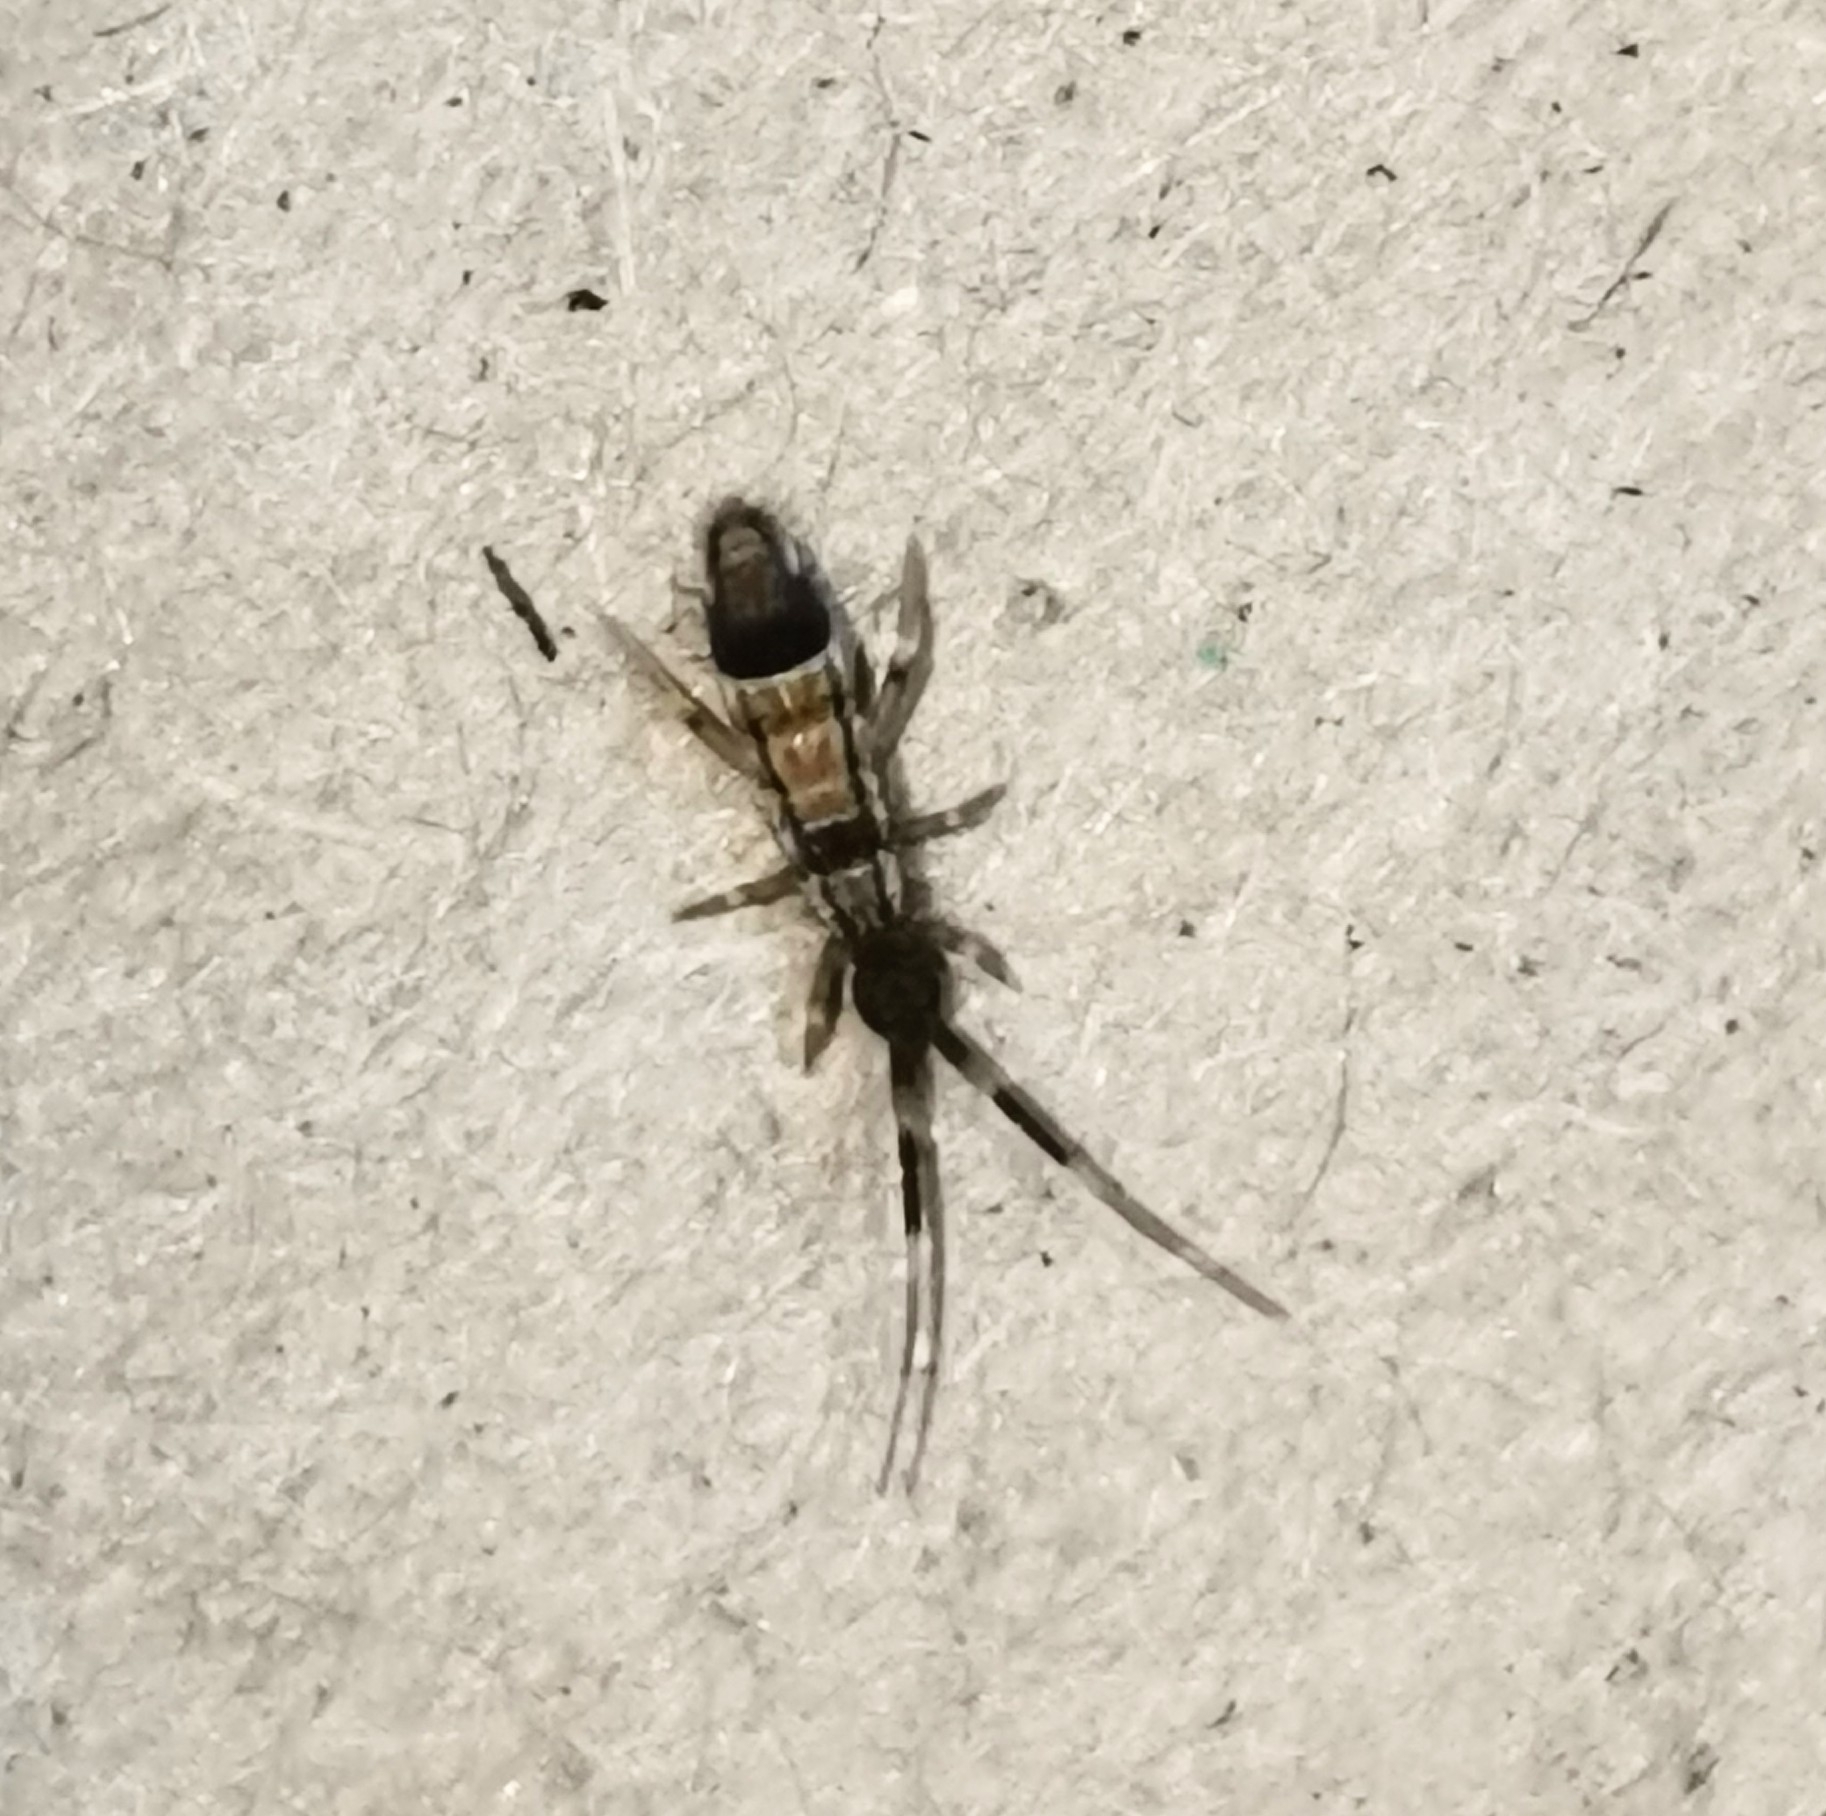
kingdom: Animalia
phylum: Arthropoda
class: Collembola
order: Entomobryomorpha
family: Entomobryidae
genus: Entomobrya
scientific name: Entomobrya nivalis
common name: Cosmopolitan springtail
